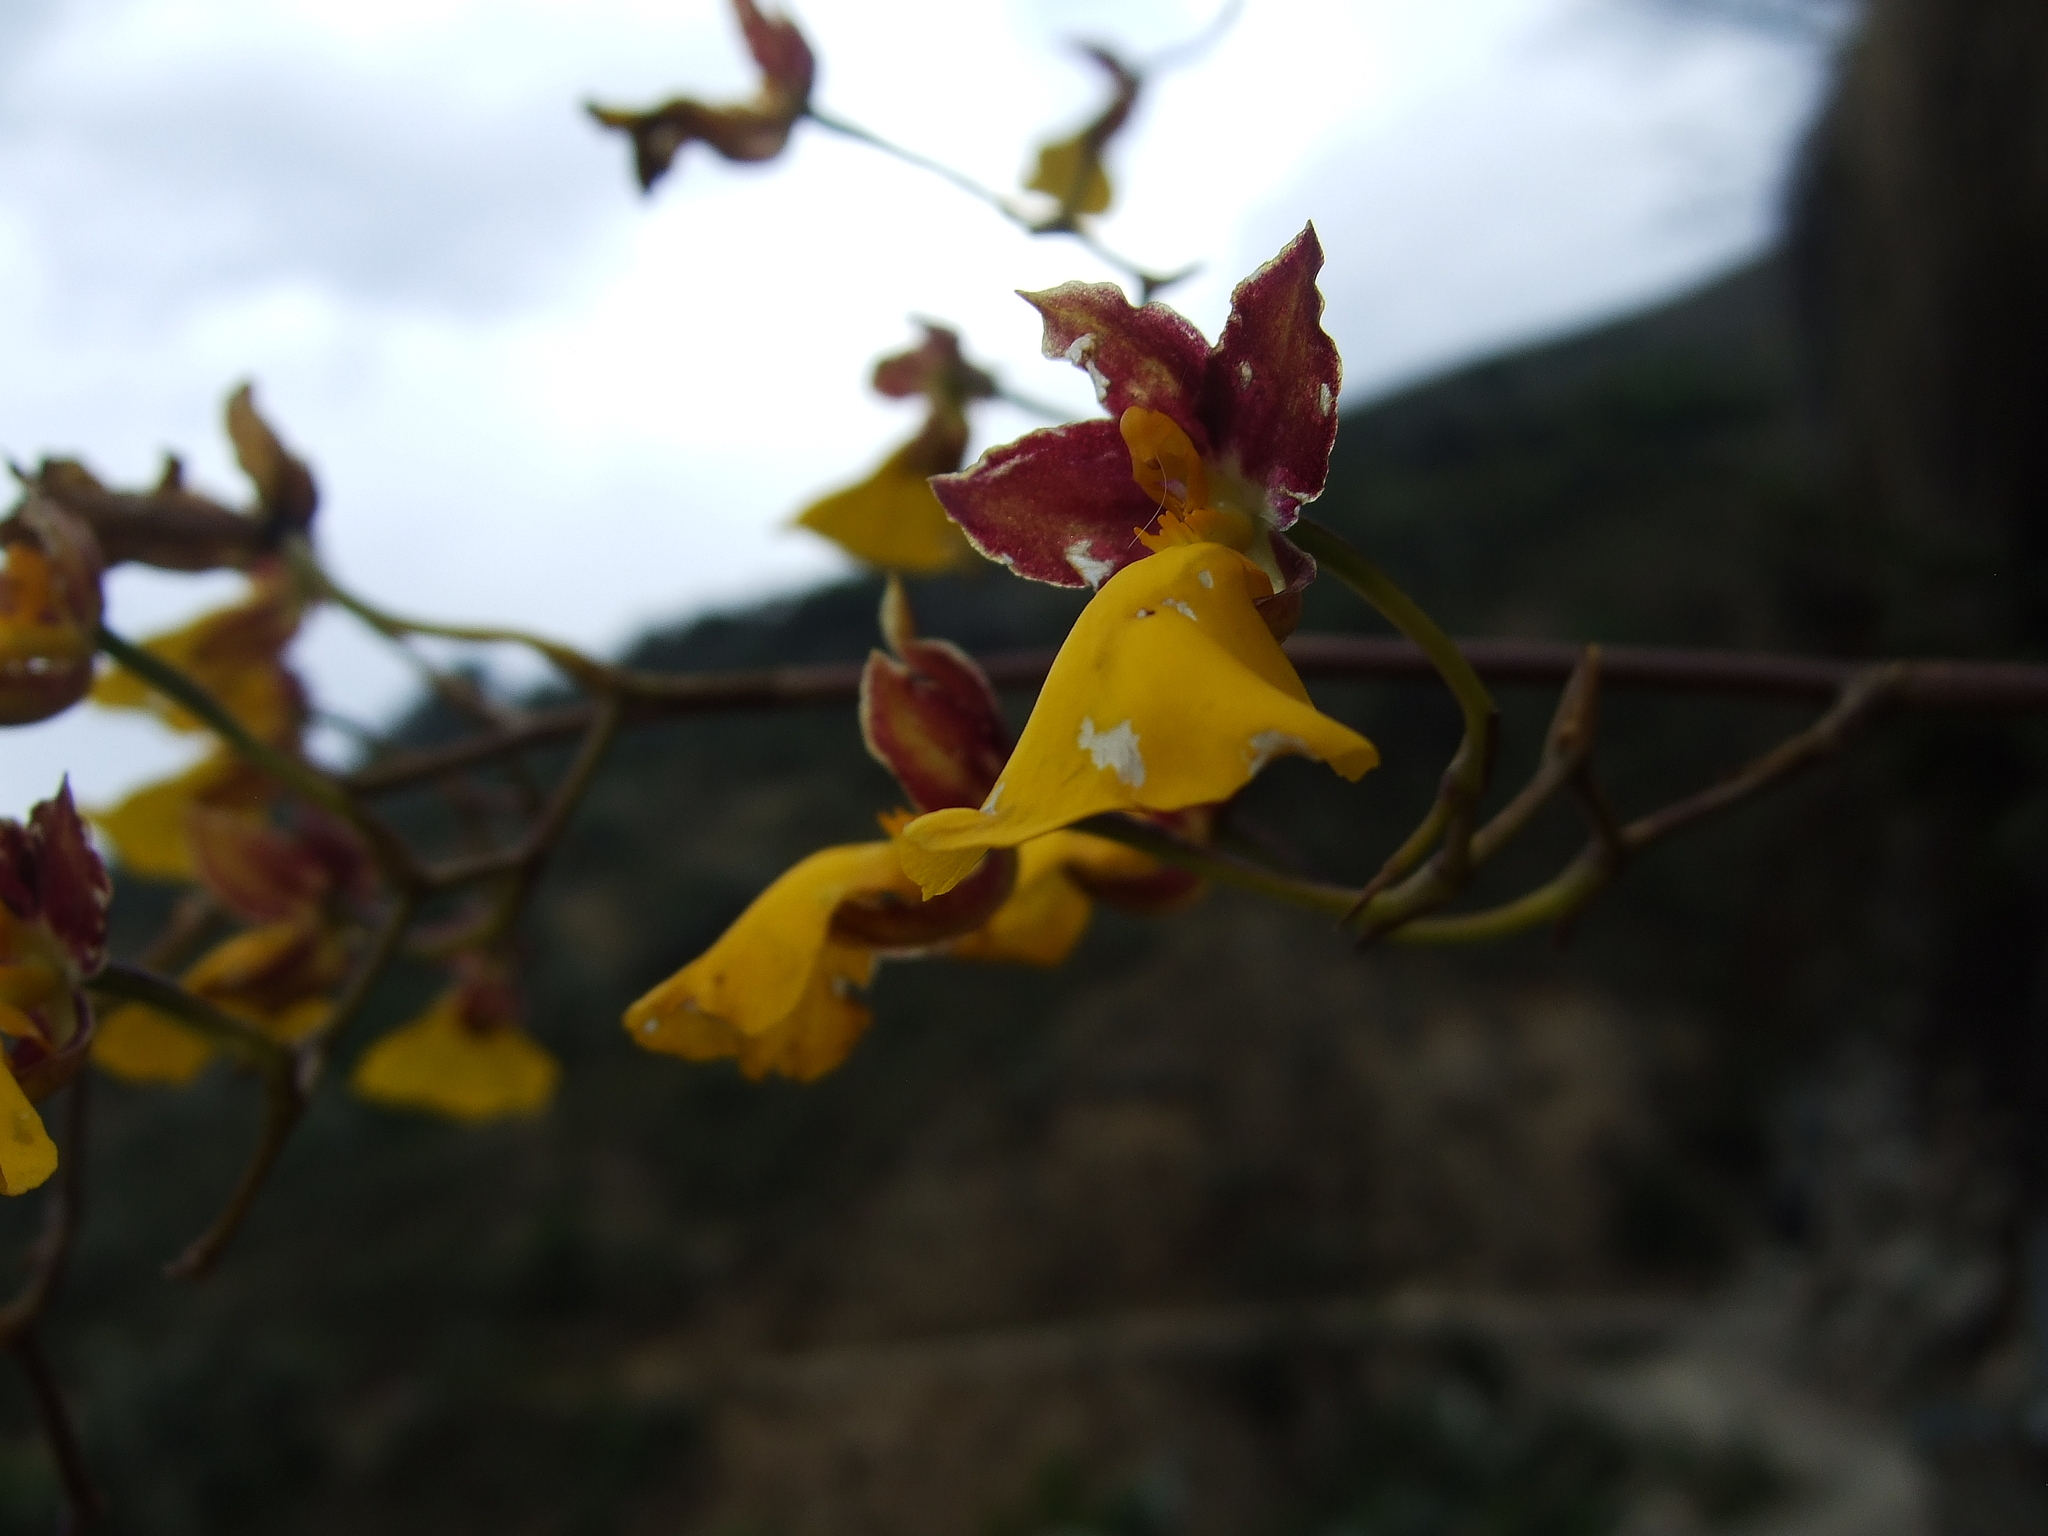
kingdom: Plantae
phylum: Tracheophyta
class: Liliopsida
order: Asparagales
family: Orchidaceae
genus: Cyrtochilum
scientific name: Cyrtochilum aureum
